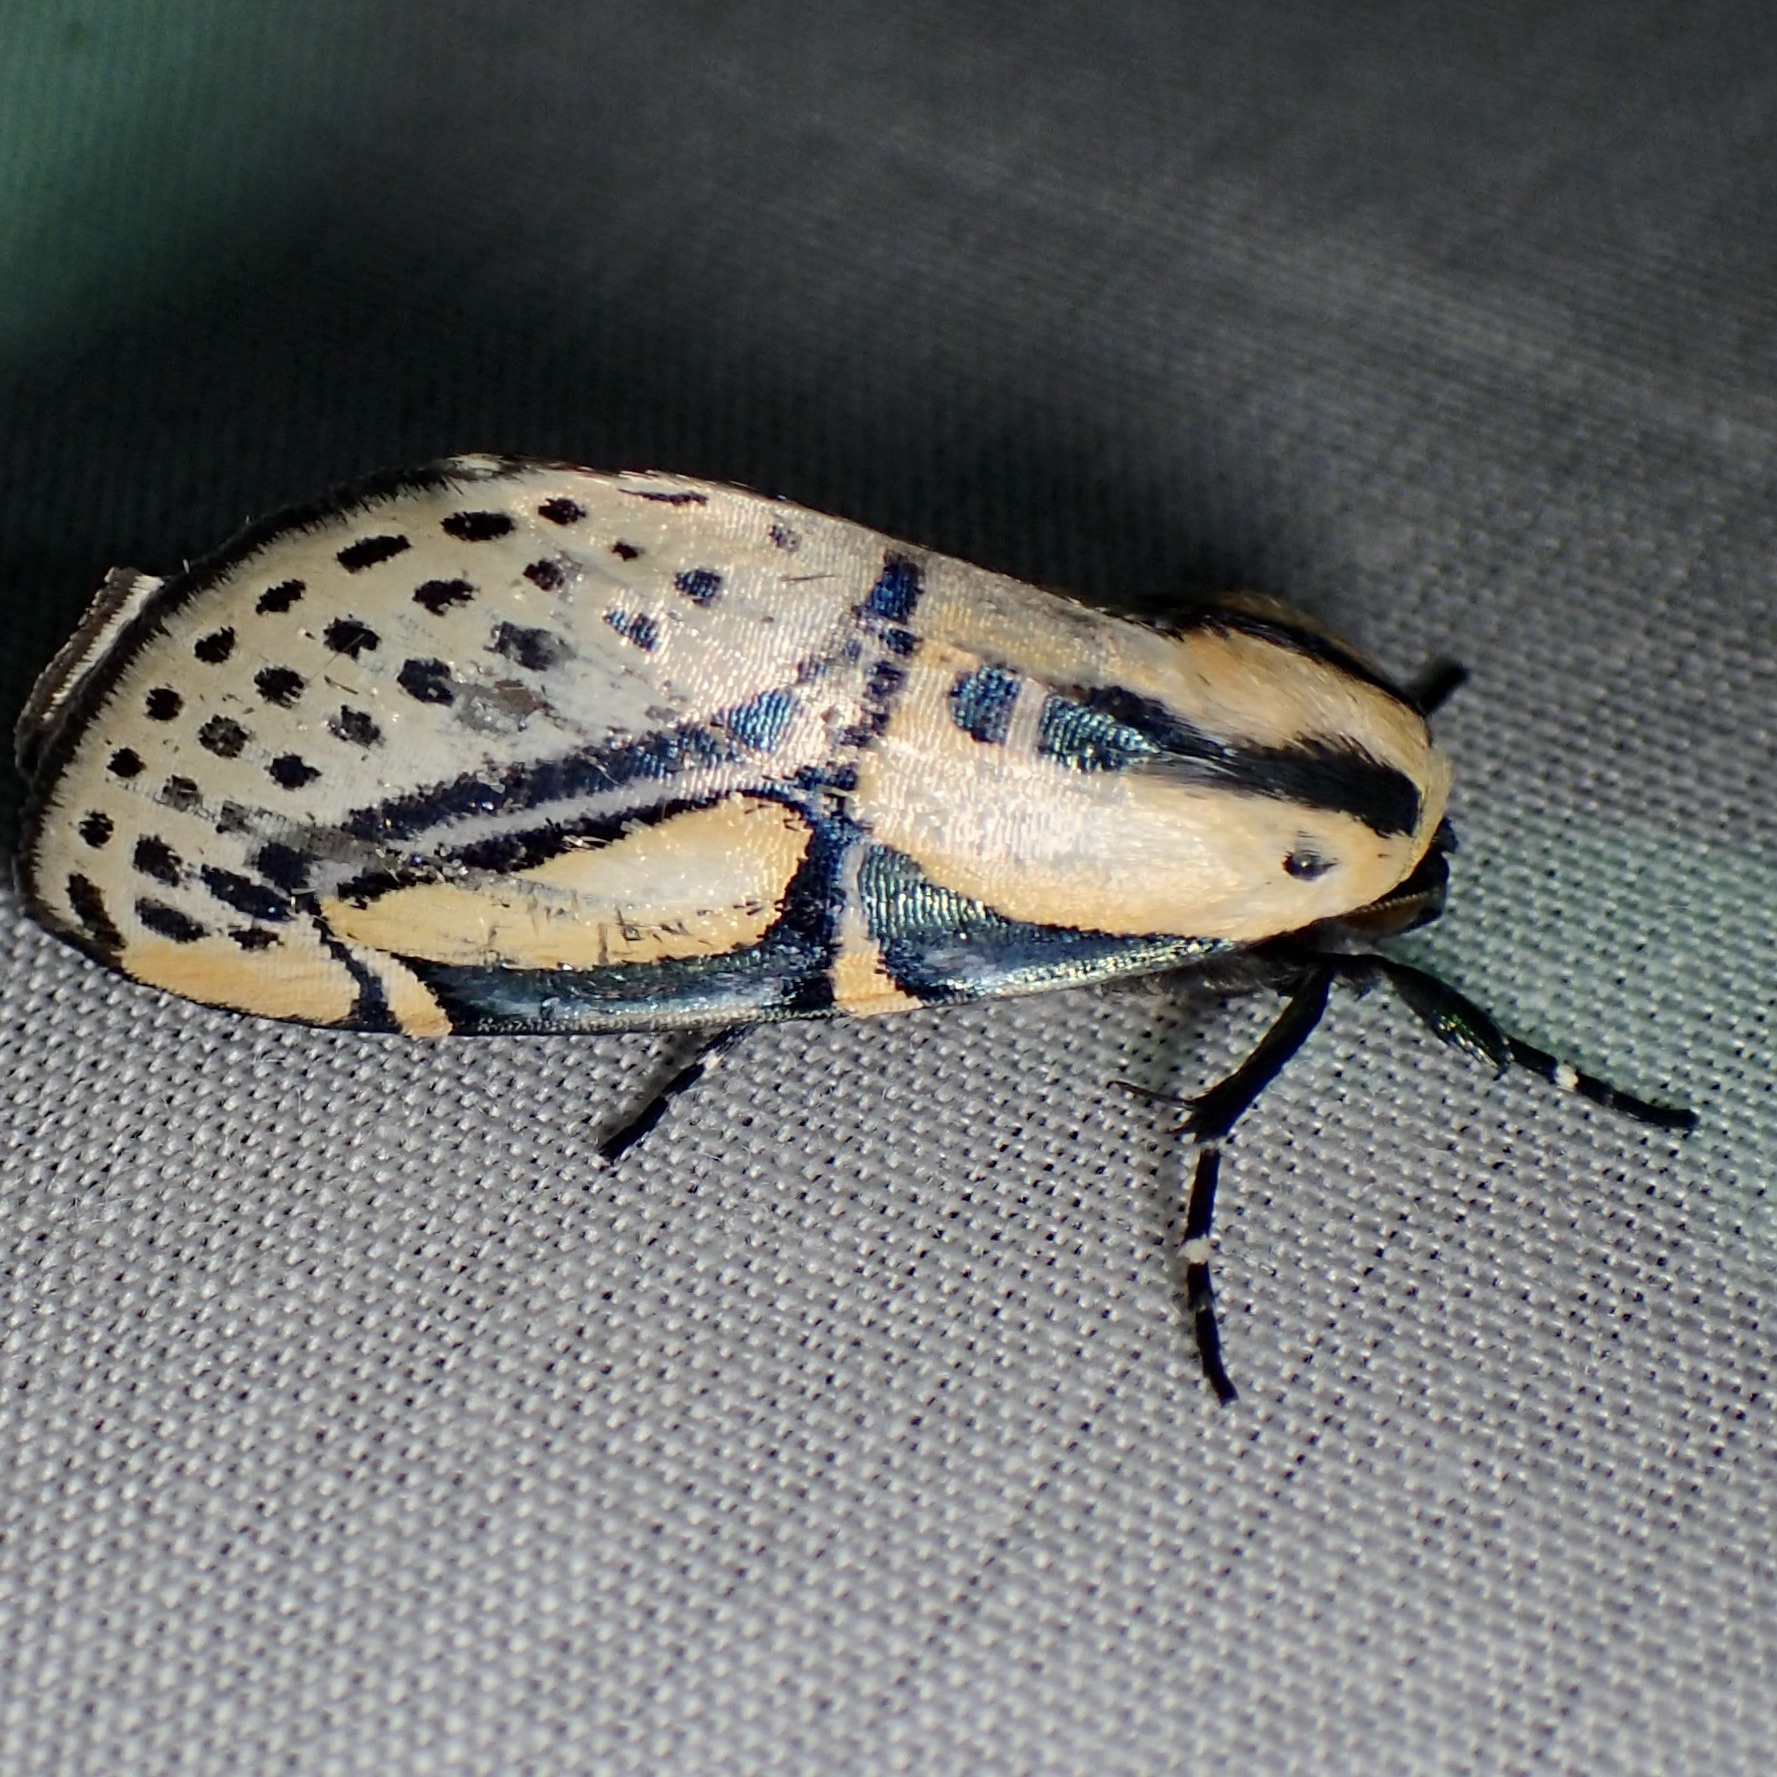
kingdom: Animalia
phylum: Arthropoda
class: Insecta
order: Lepidoptera
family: Erebidae
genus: Diphthera
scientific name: Diphthera festiva
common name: Hieroglyphic moth
